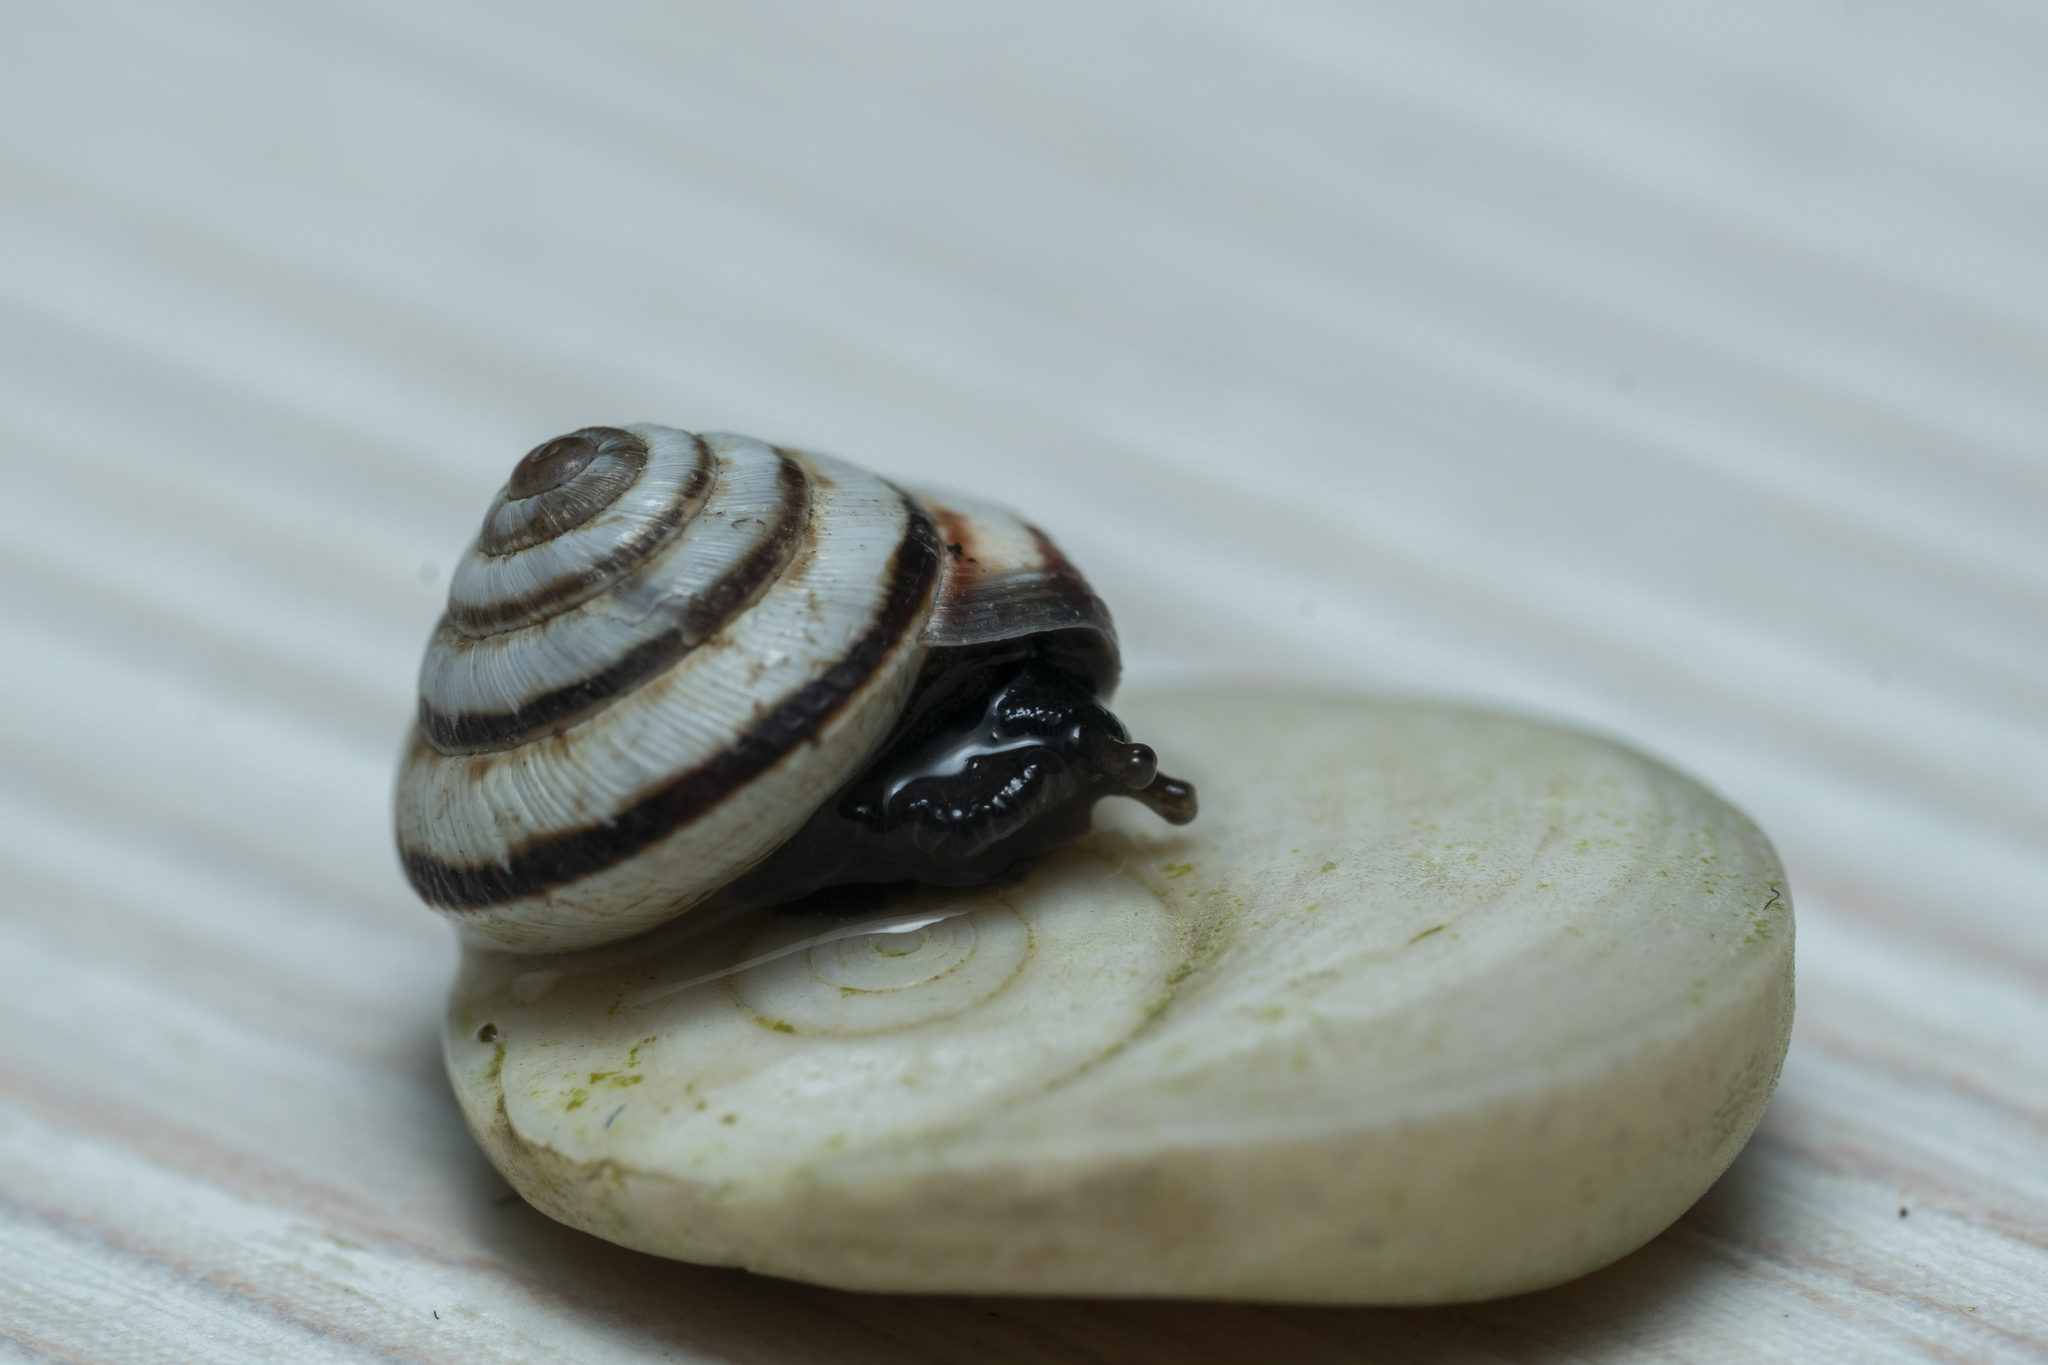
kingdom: Animalia
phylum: Mollusca
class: Gastropoda
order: Stylommatophora
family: Geomitridae
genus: Trochoidea
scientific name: Trochoidea pyramidata
